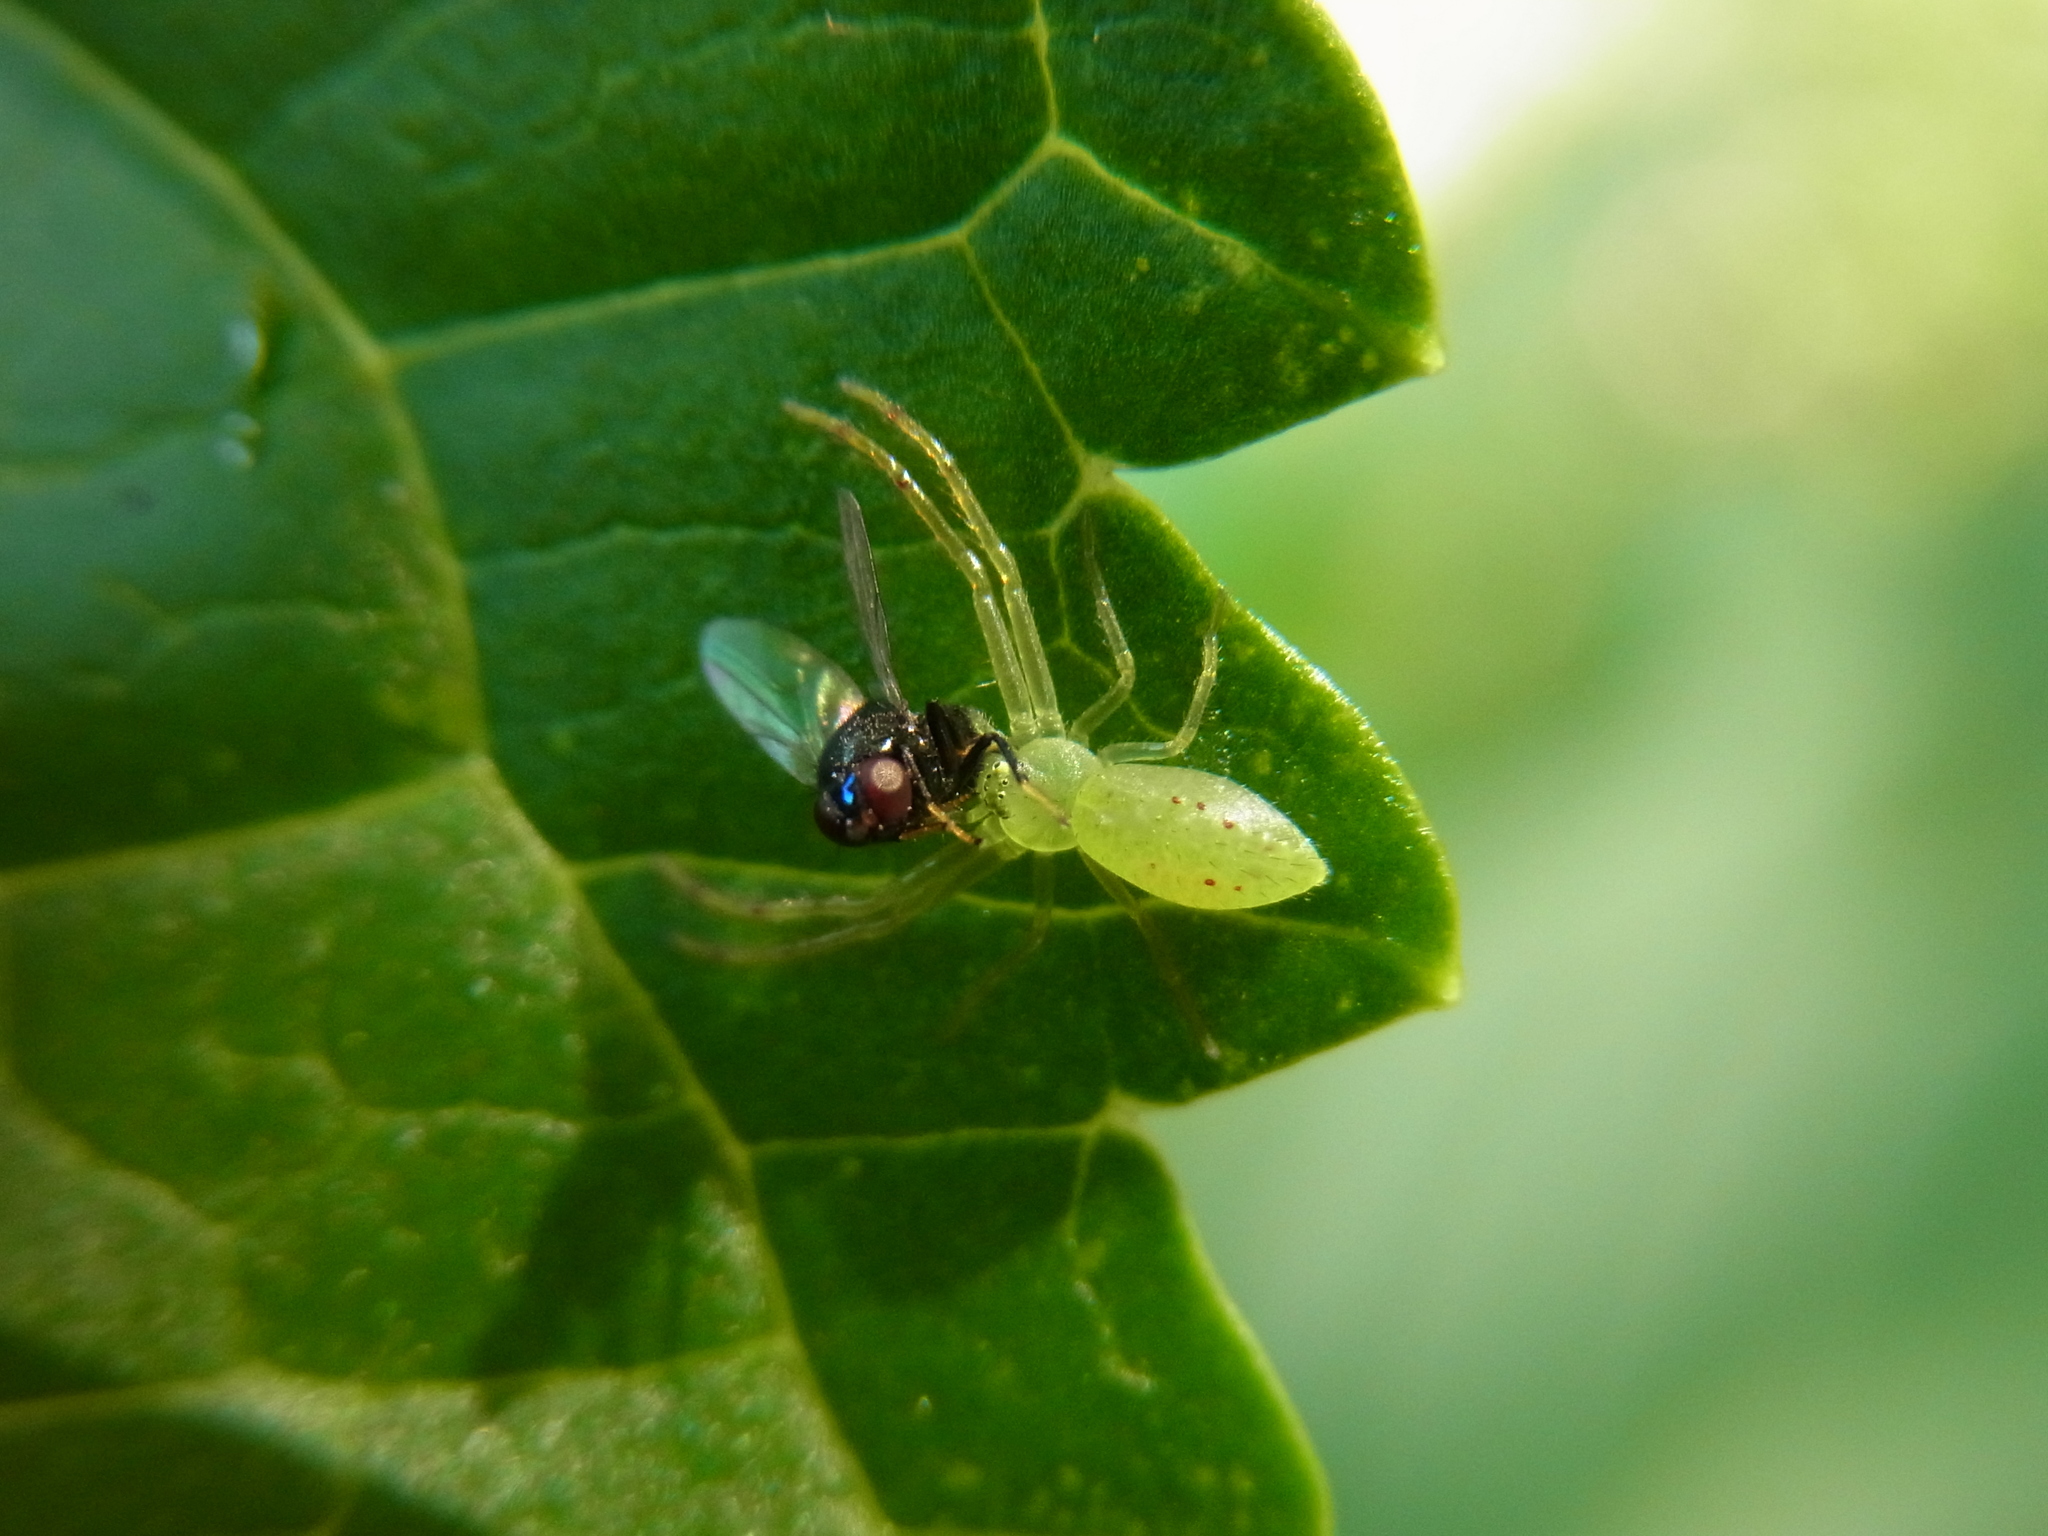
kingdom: Animalia
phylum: Arthropoda
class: Arachnida
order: Araneae
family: Thomisidae
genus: Oxytate
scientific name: Oxytate striatipes
